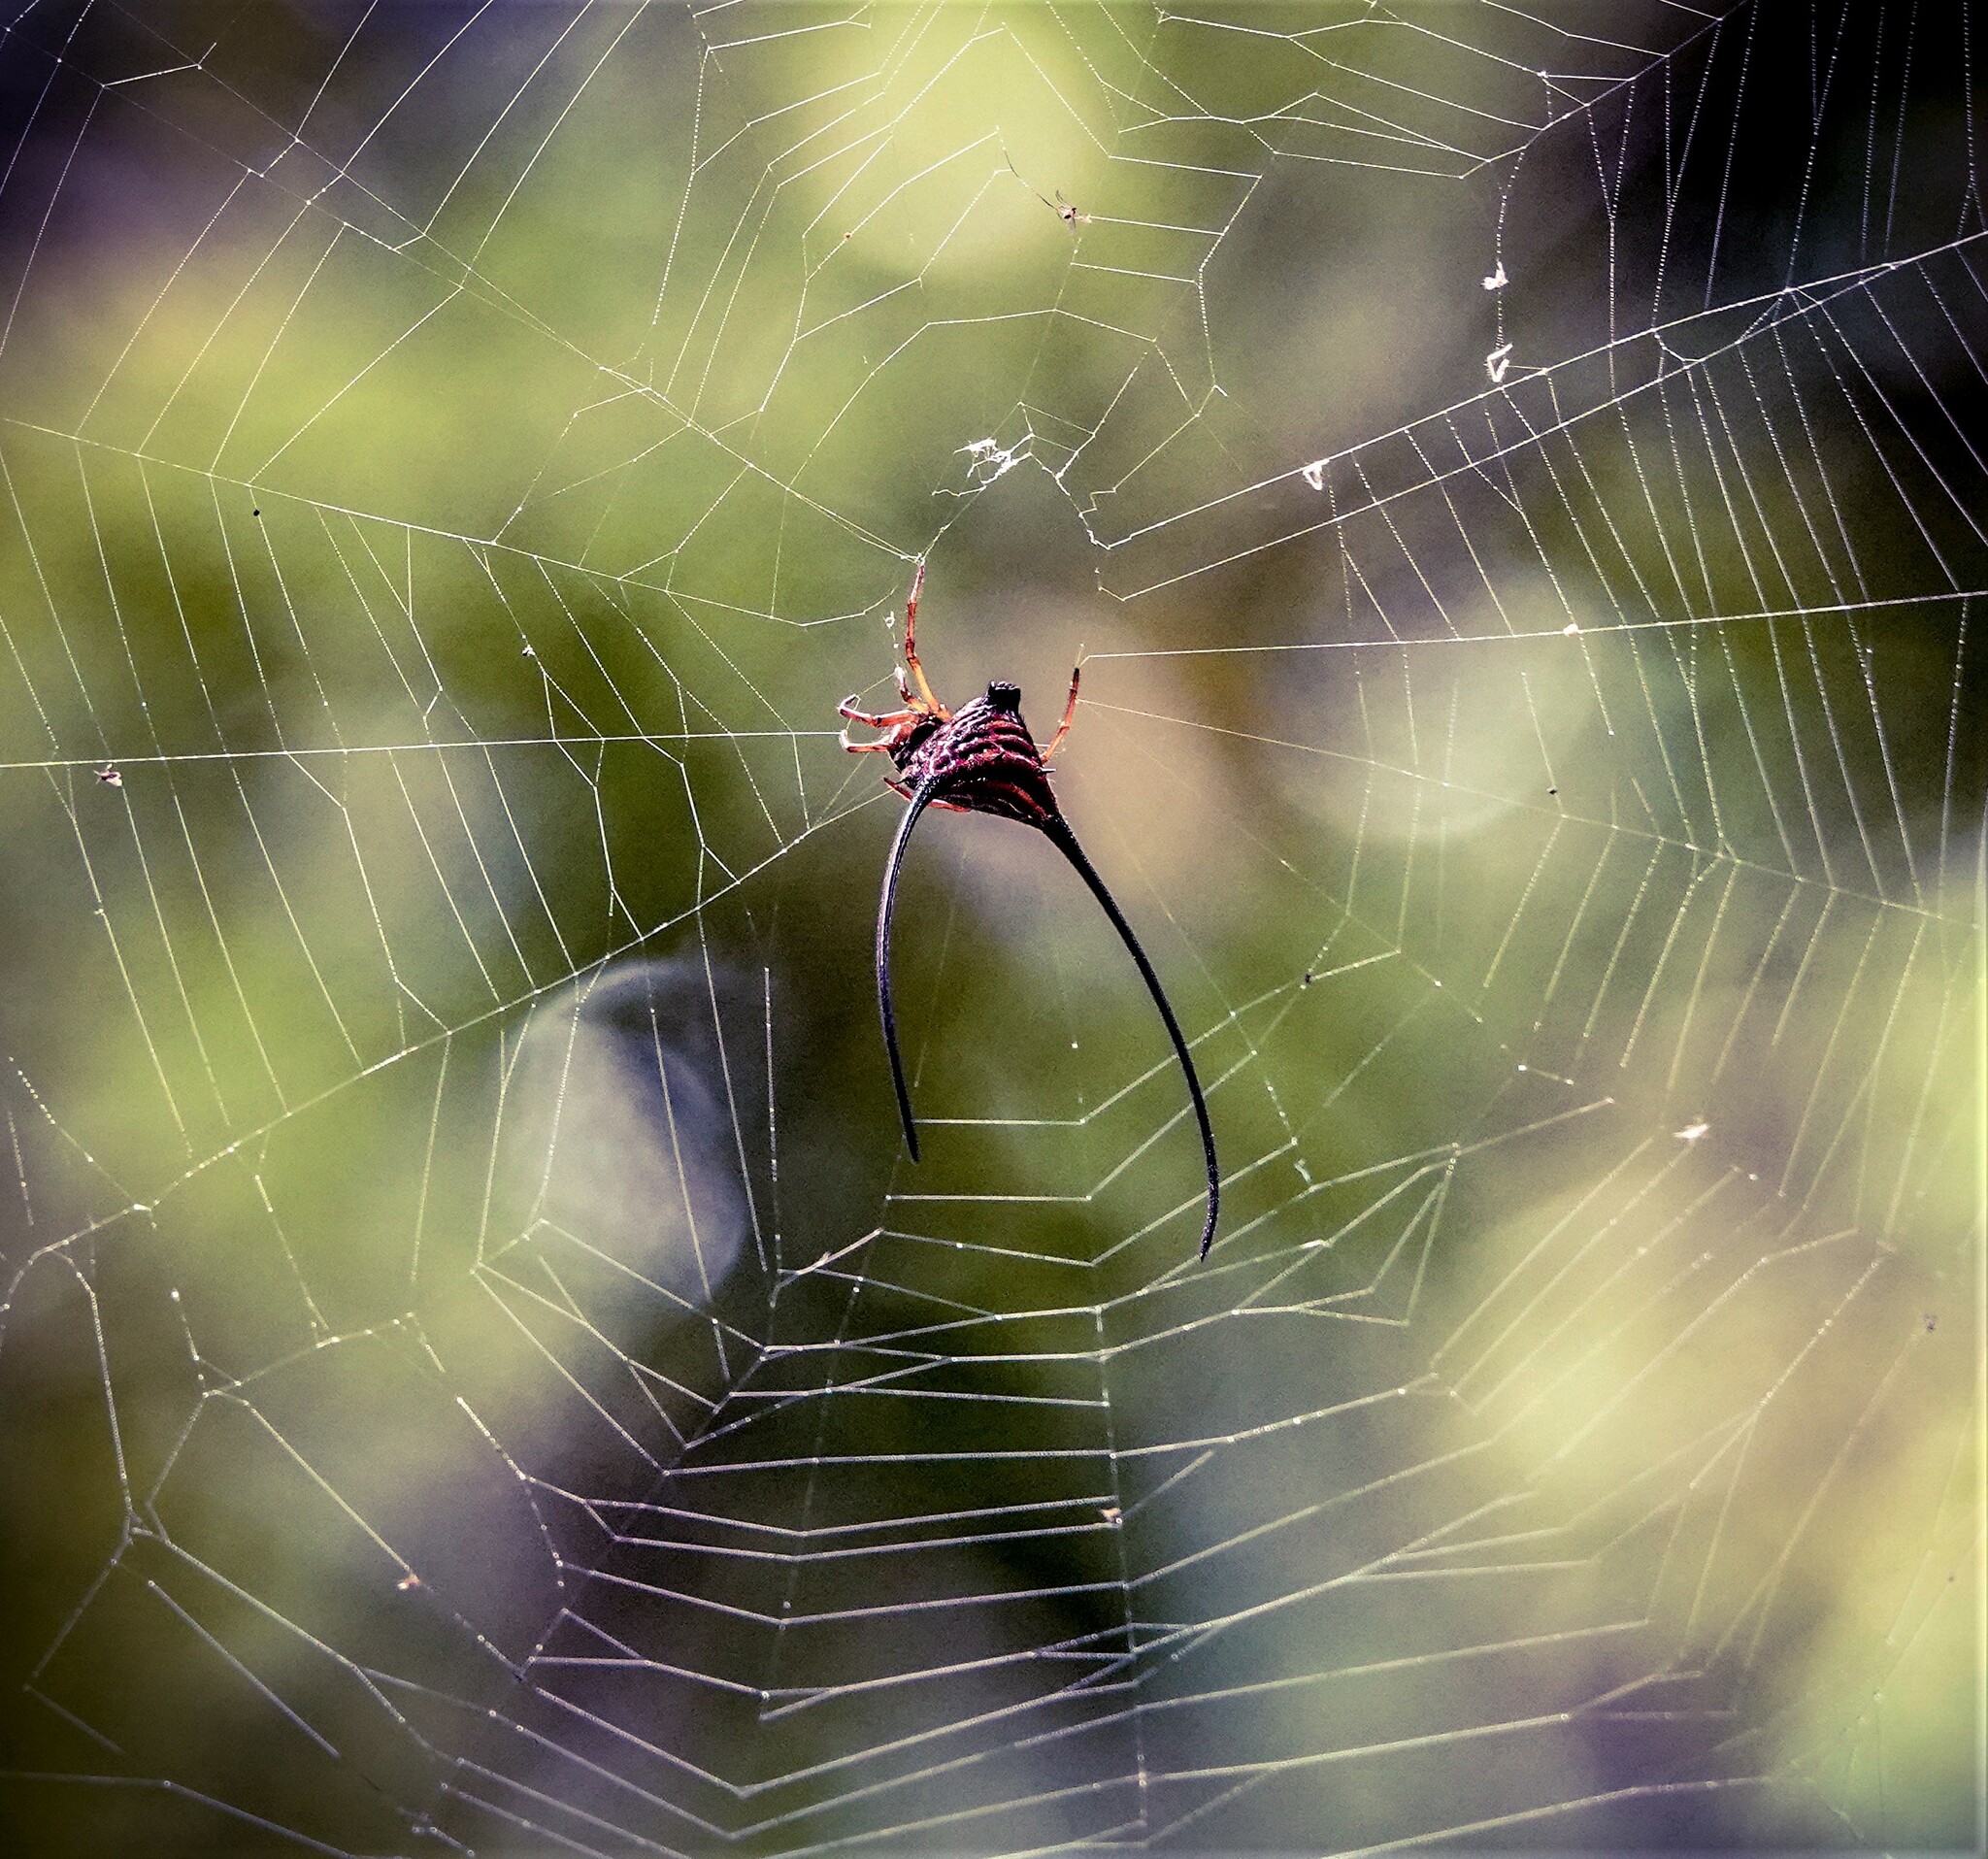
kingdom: Animalia
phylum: Arthropoda
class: Arachnida
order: Araneae
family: Araneidae
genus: Macracantha
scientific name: Macracantha arcuata
